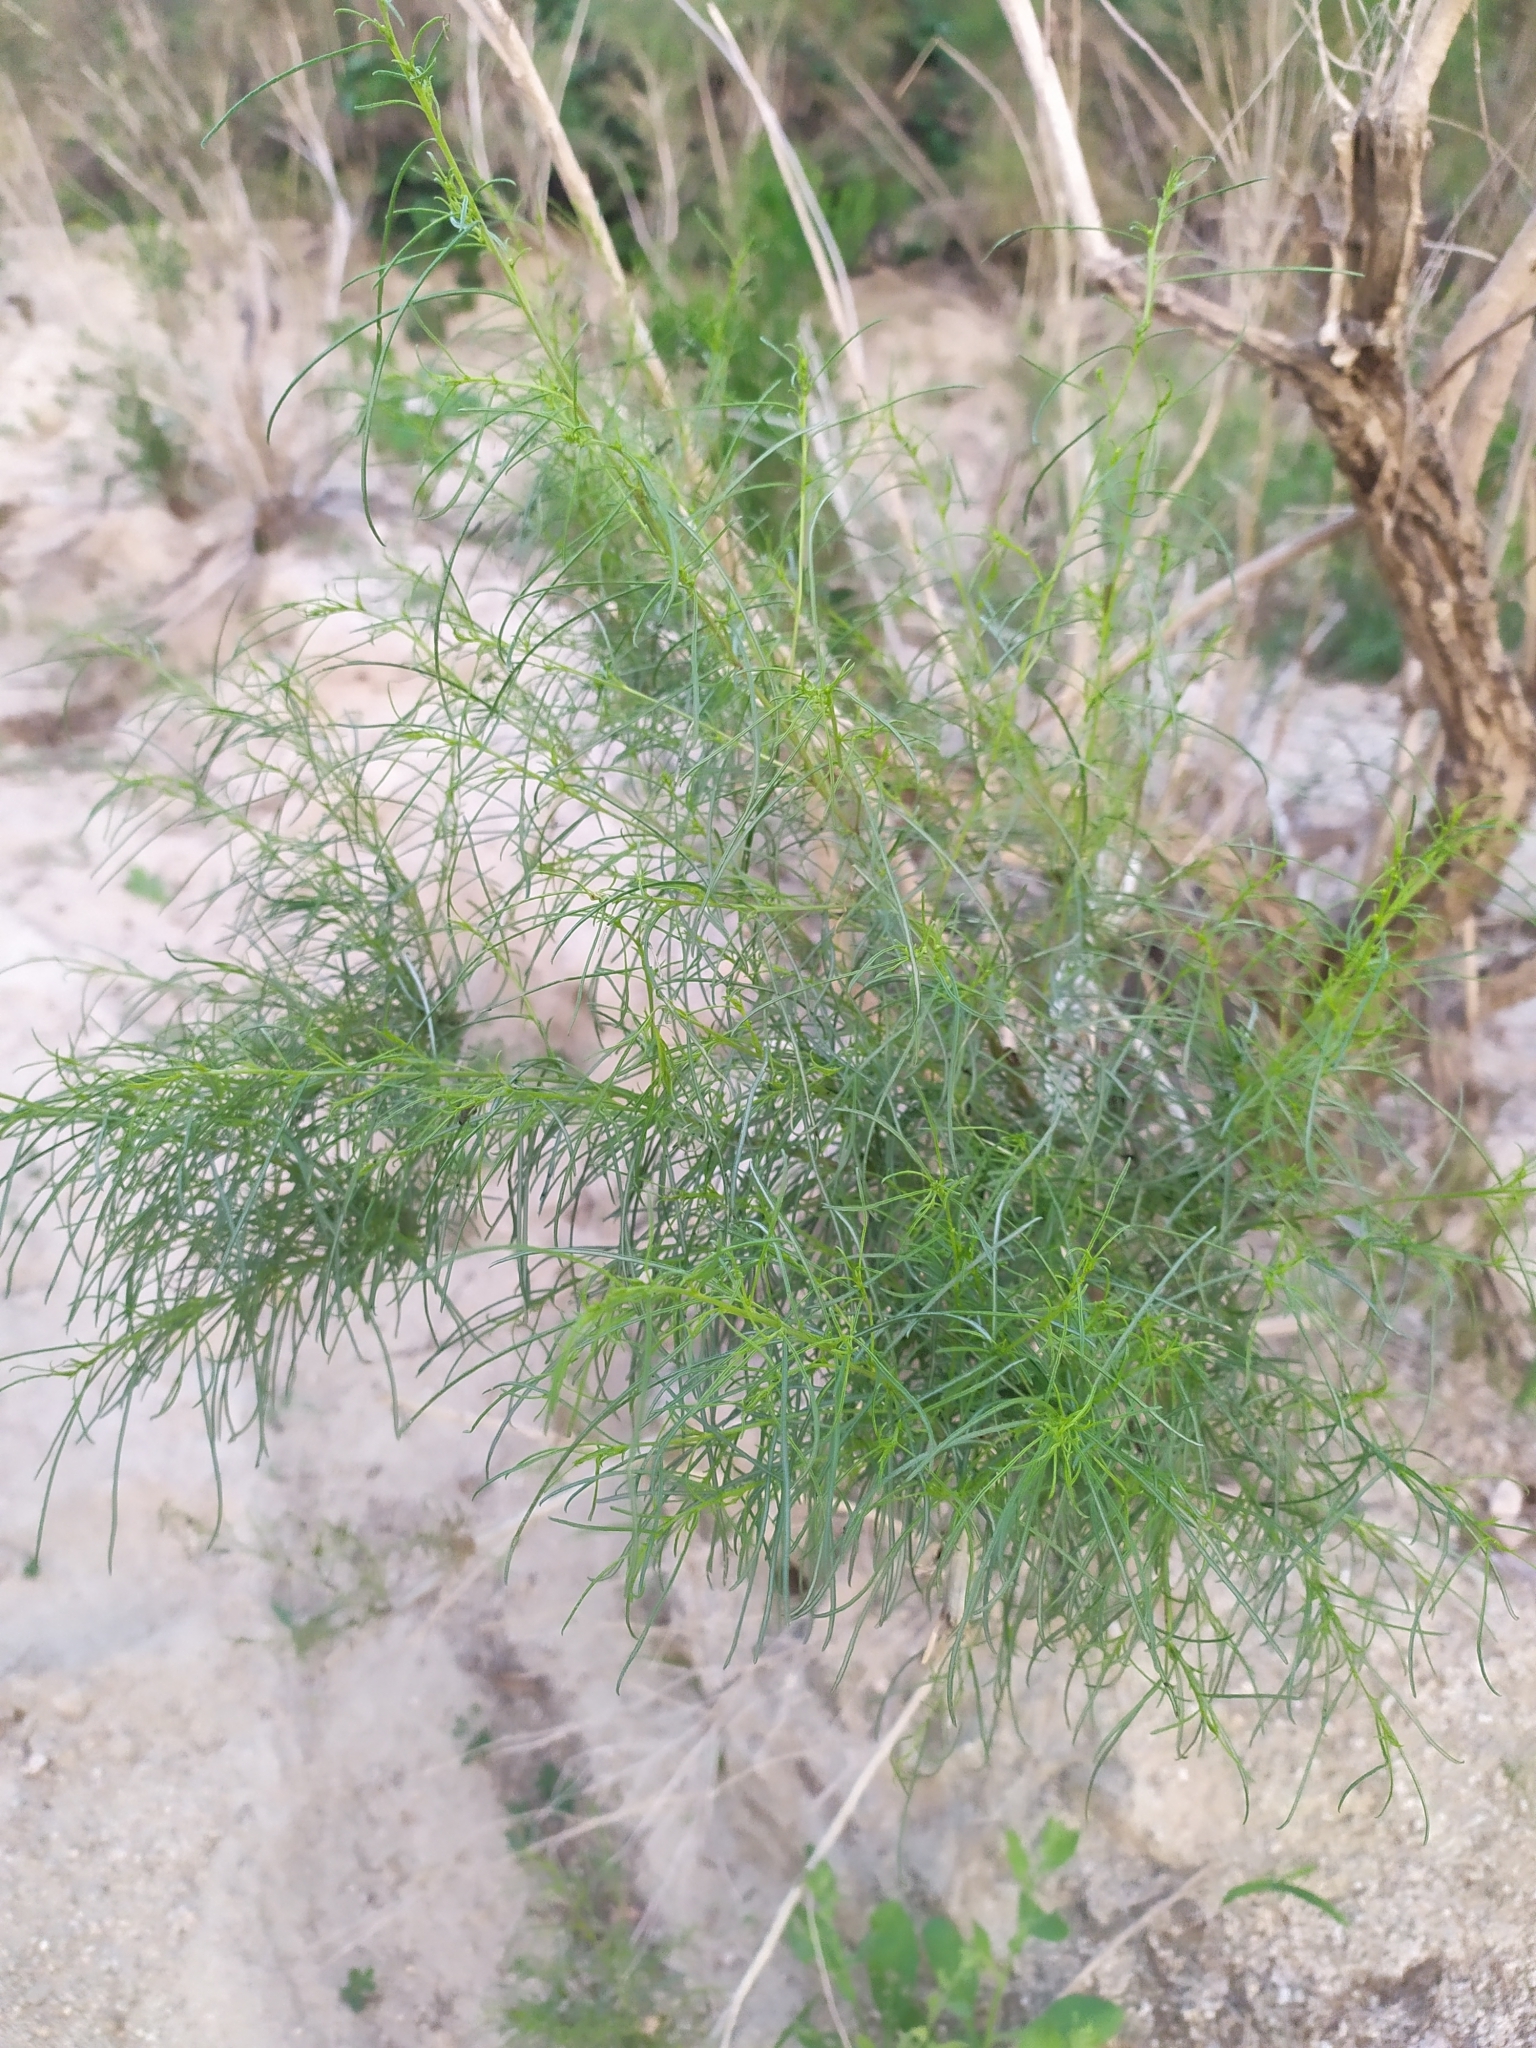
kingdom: Plantae
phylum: Tracheophyta
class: Magnoliopsida
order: Asterales
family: Asteraceae
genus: Ambrosia
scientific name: Ambrosia monogyra
